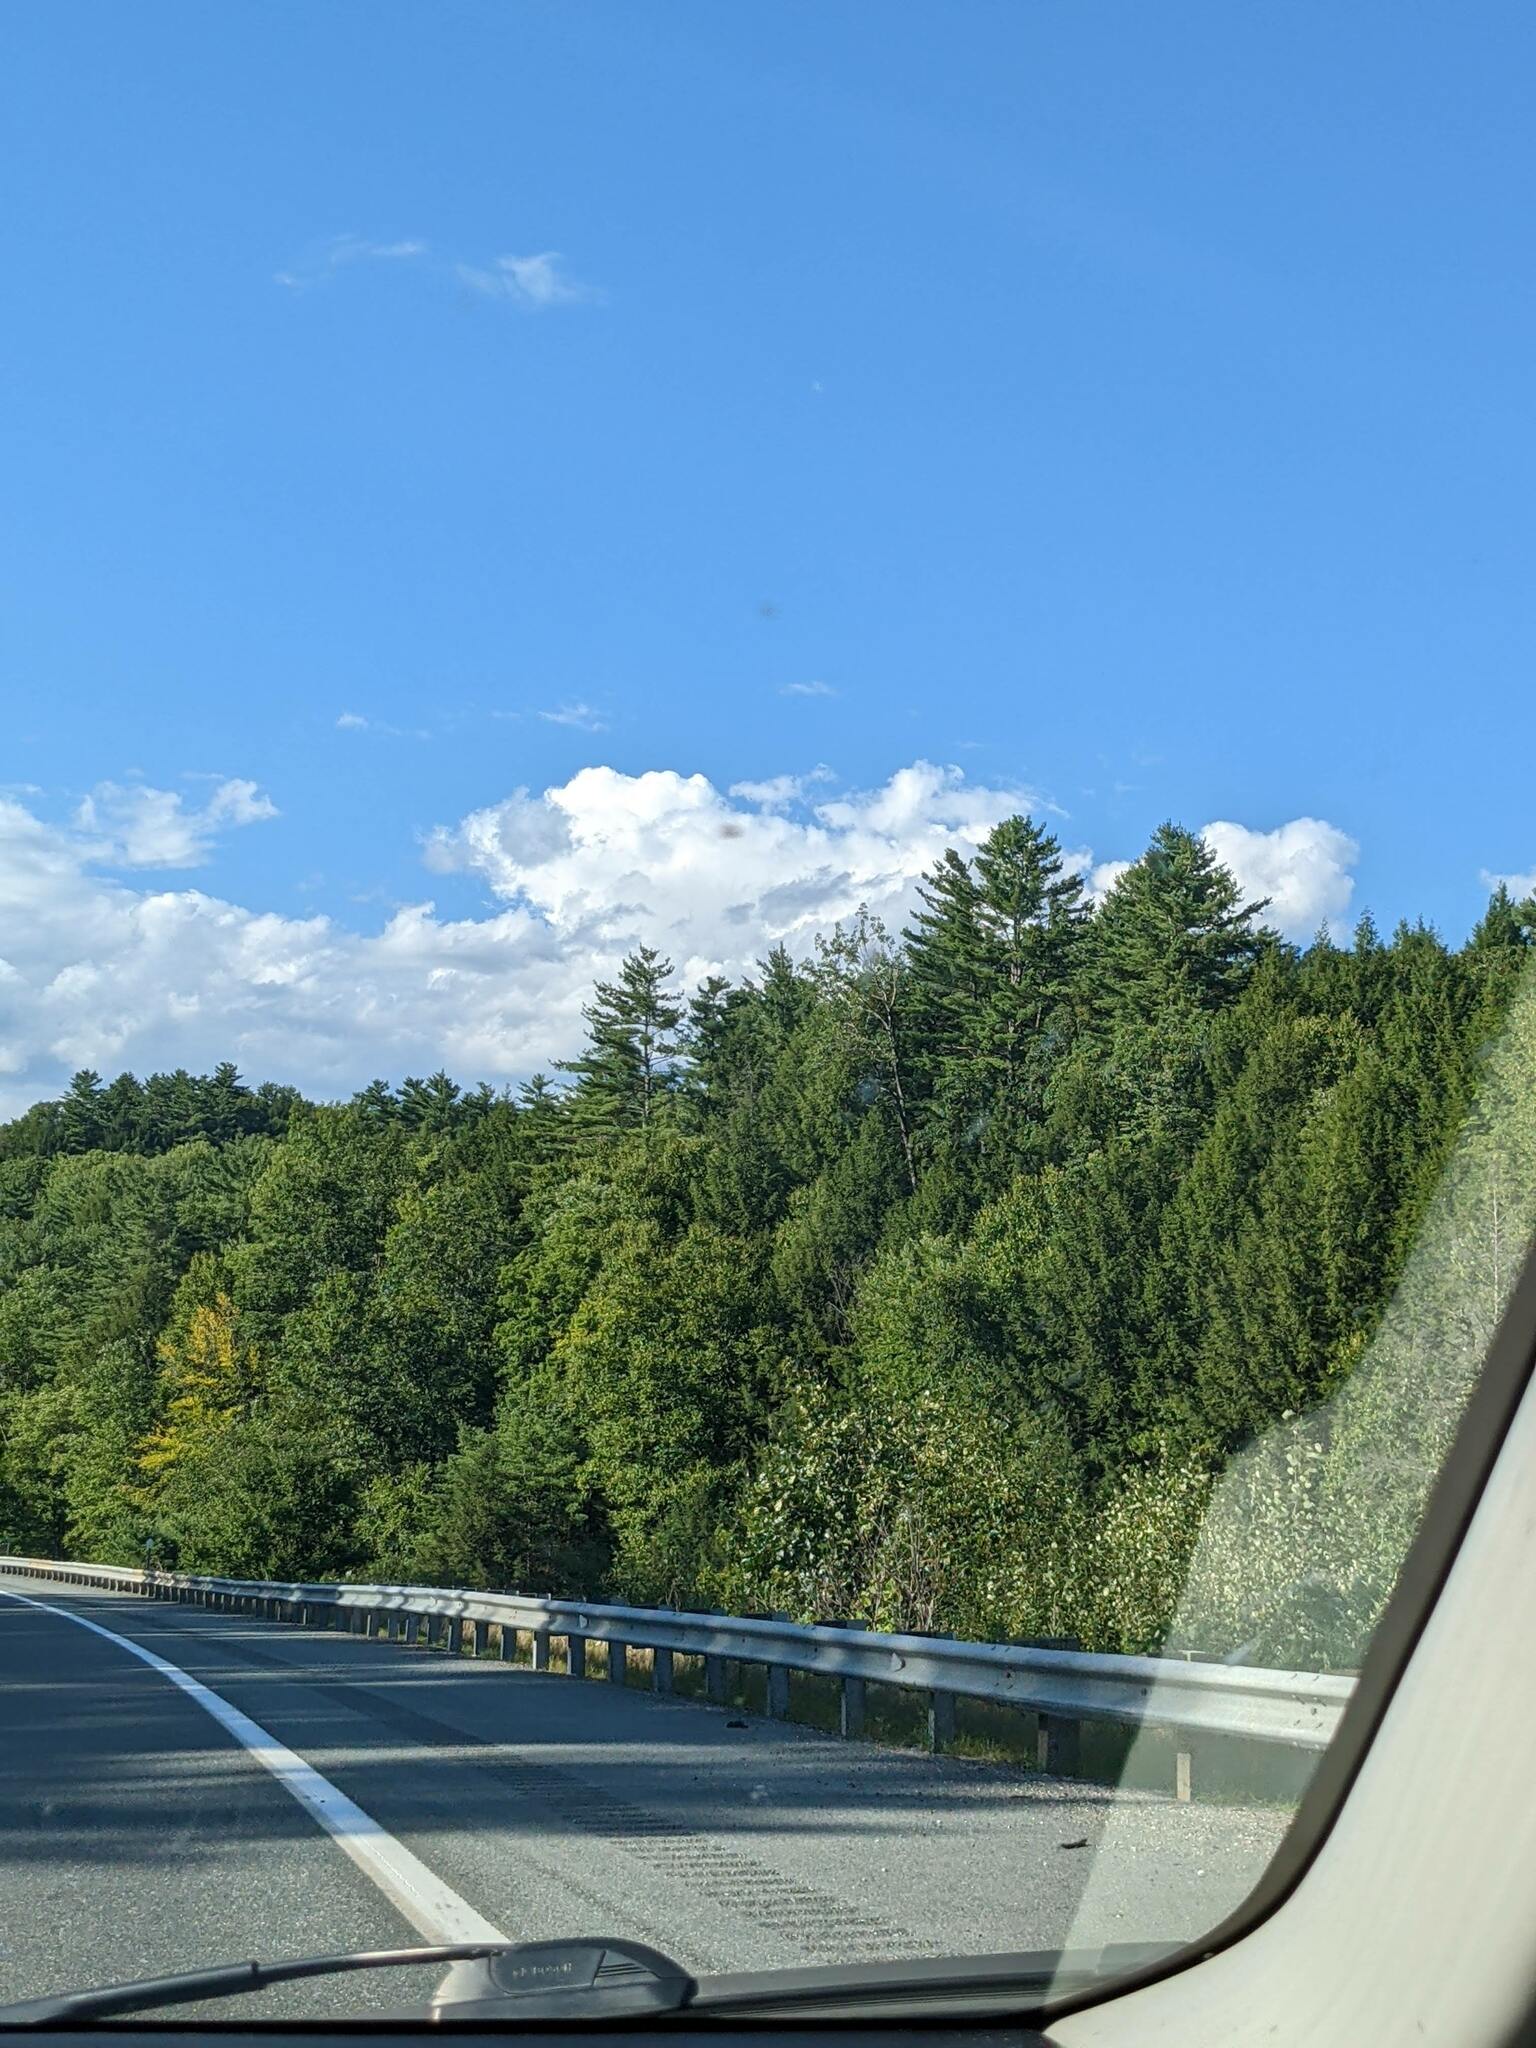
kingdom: Plantae
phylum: Tracheophyta
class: Pinopsida
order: Pinales
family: Pinaceae
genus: Pinus
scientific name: Pinus strobus
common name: Weymouth pine
